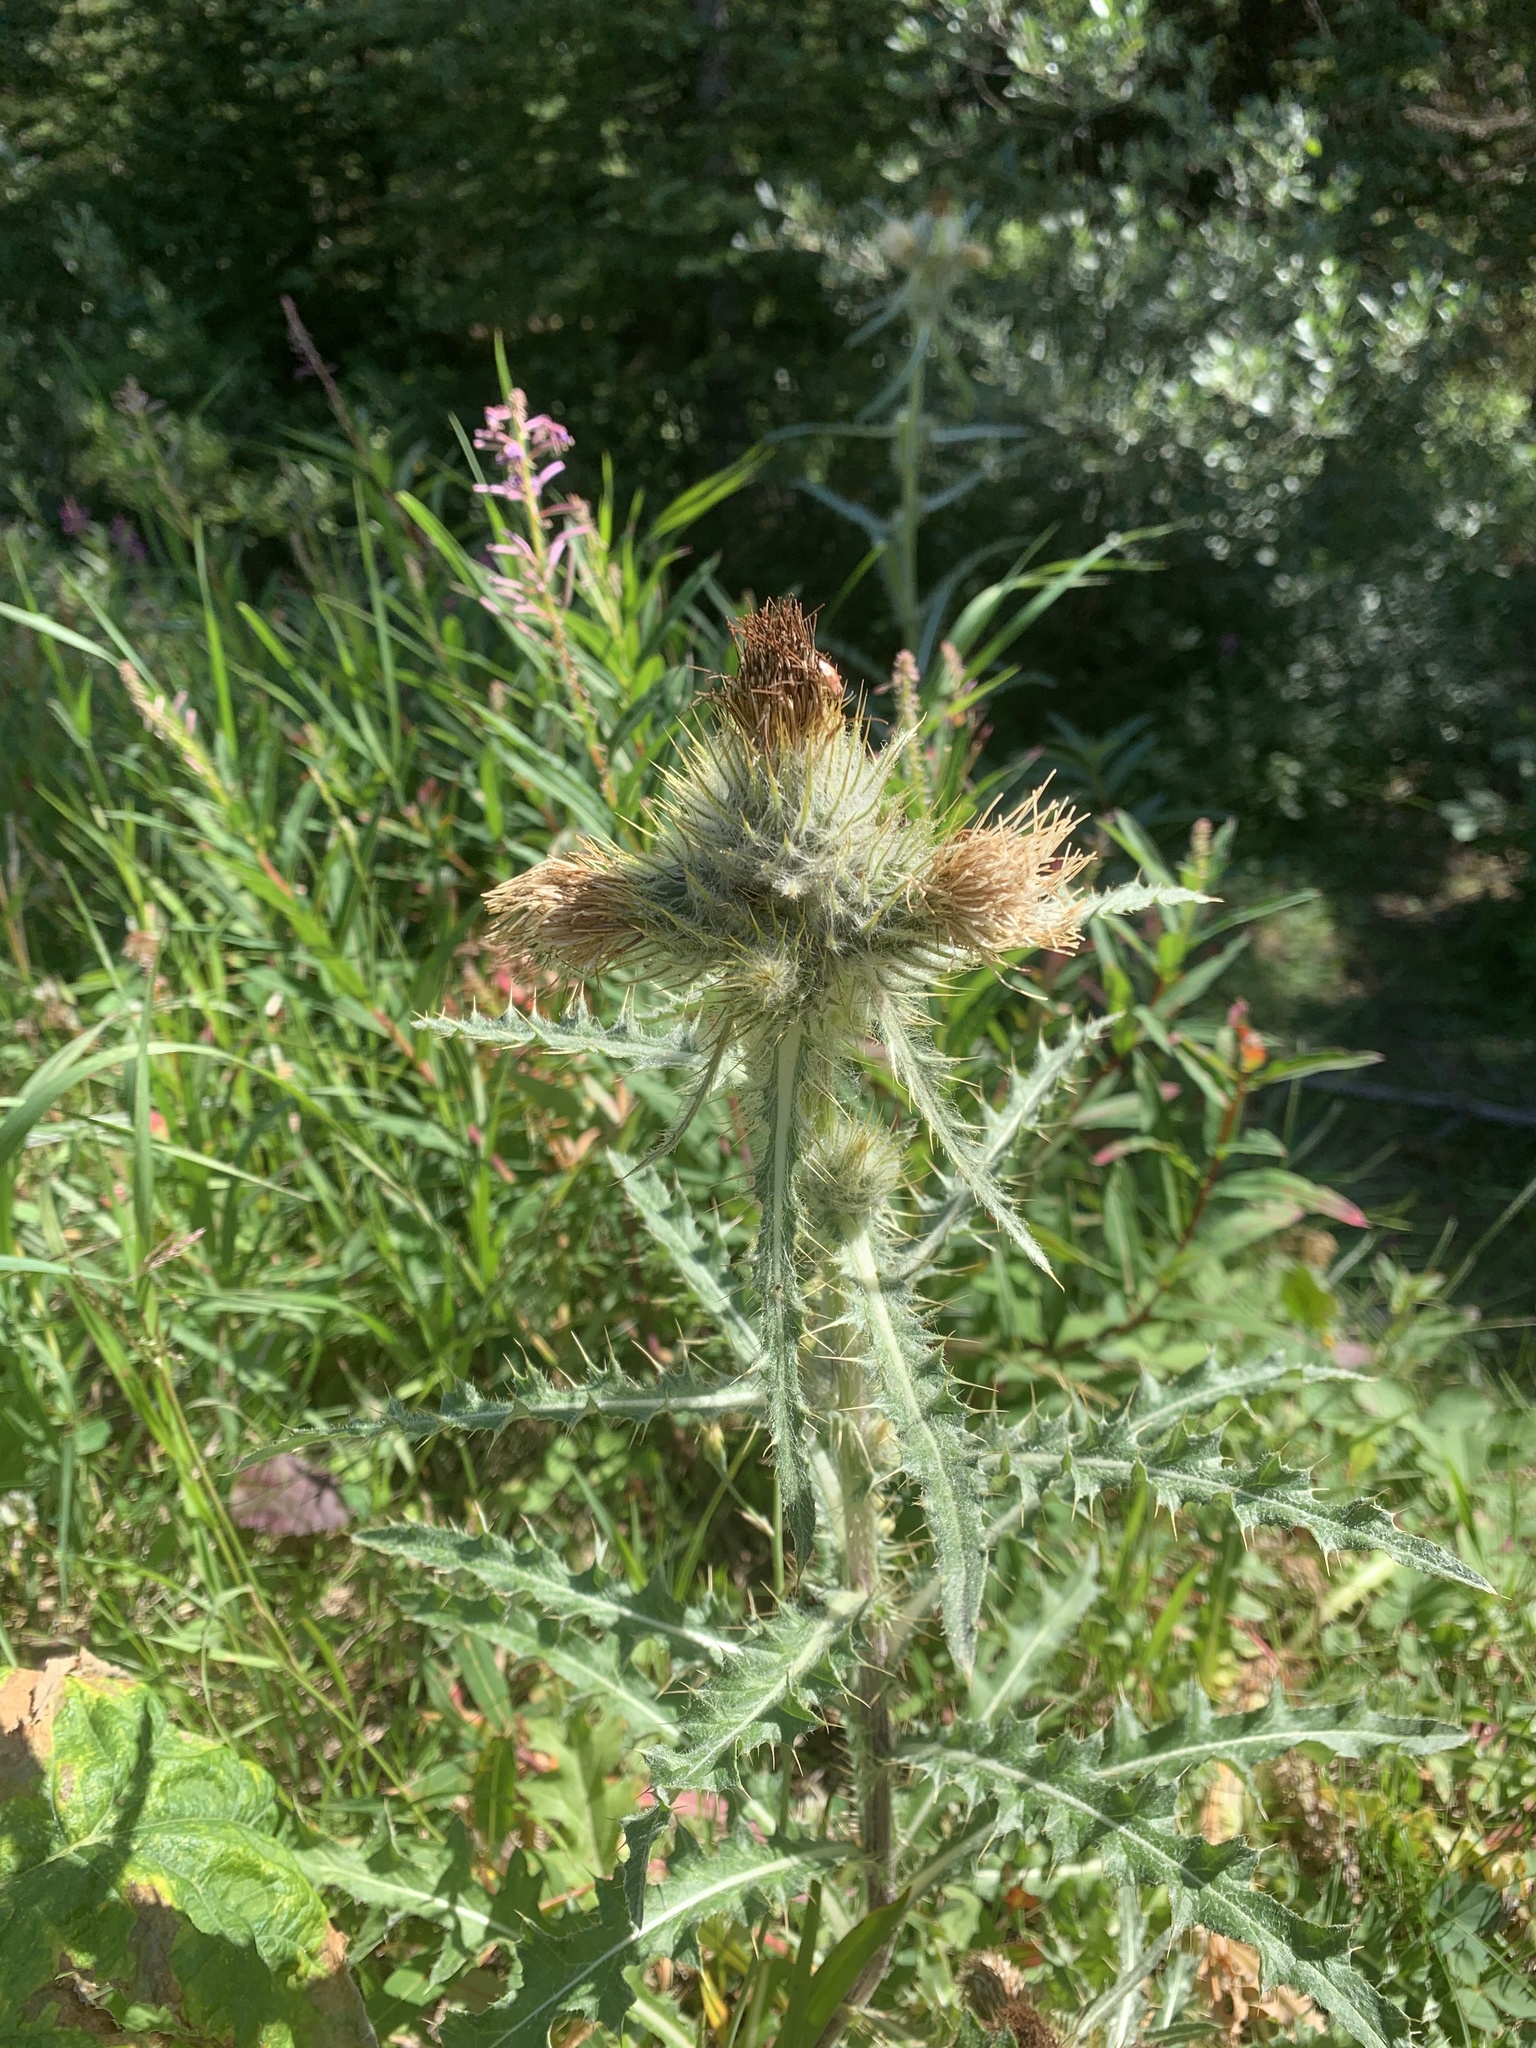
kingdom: Plantae
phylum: Tracheophyta
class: Magnoliopsida
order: Asterales
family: Asteraceae
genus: Cirsium
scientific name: Cirsium hookerianum
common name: Hooker's thistle
